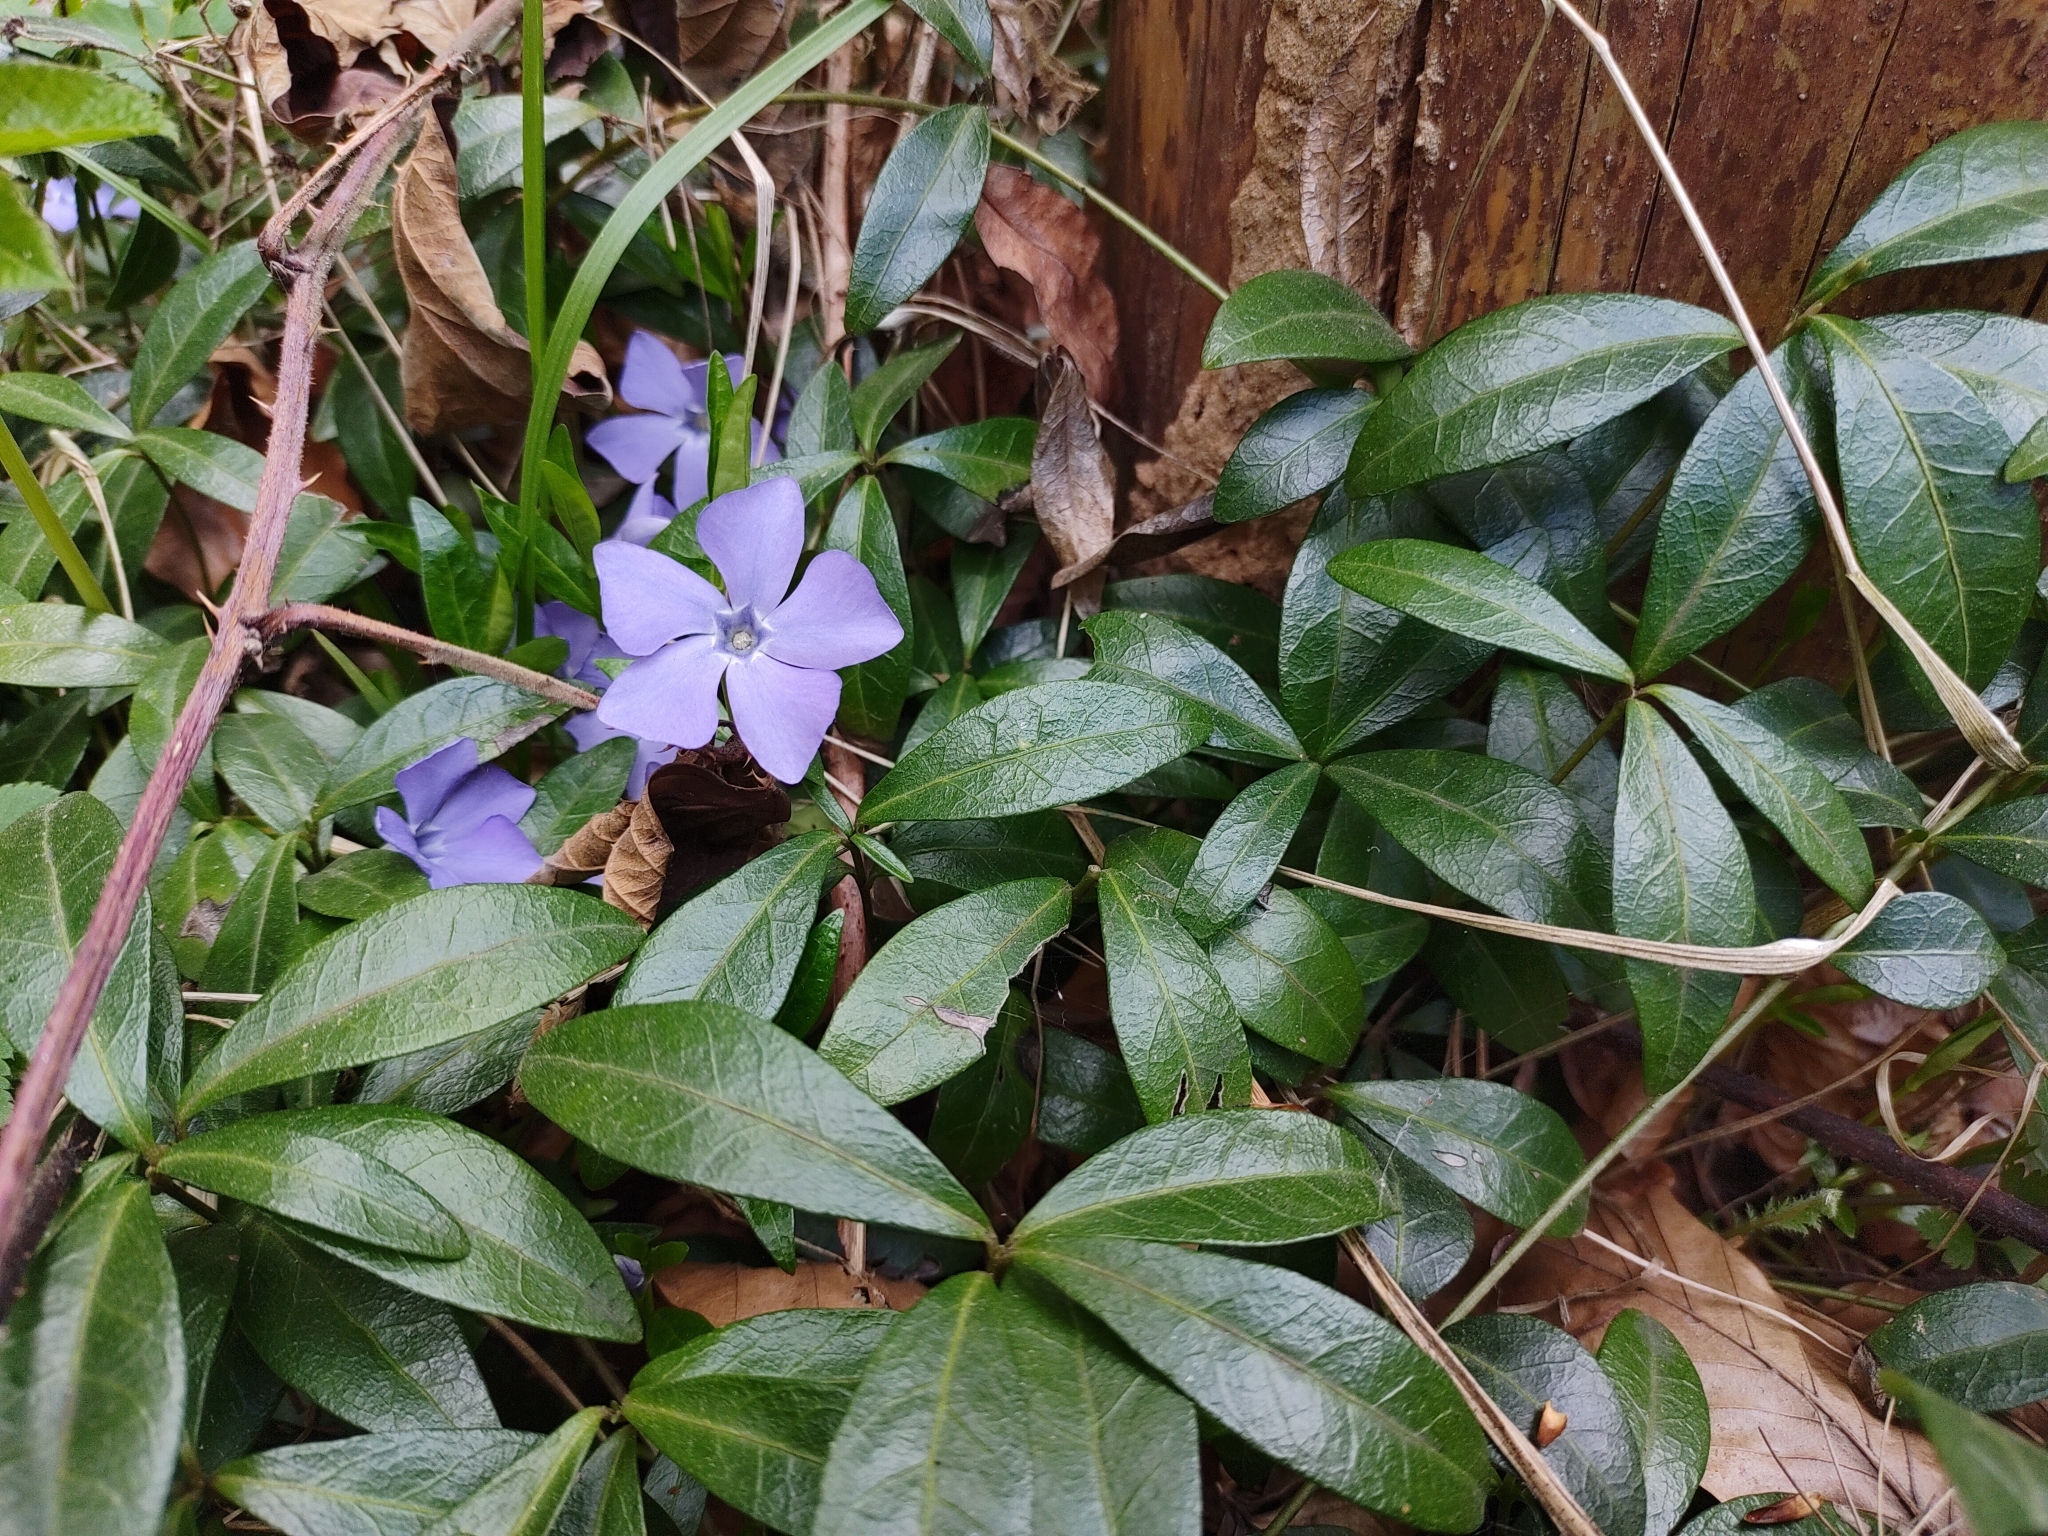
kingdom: Plantae
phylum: Tracheophyta
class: Magnoliopsida
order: Gentianales
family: Apocynaceae
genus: Vinca
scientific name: Vinca minor
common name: Lesser periwinkle
